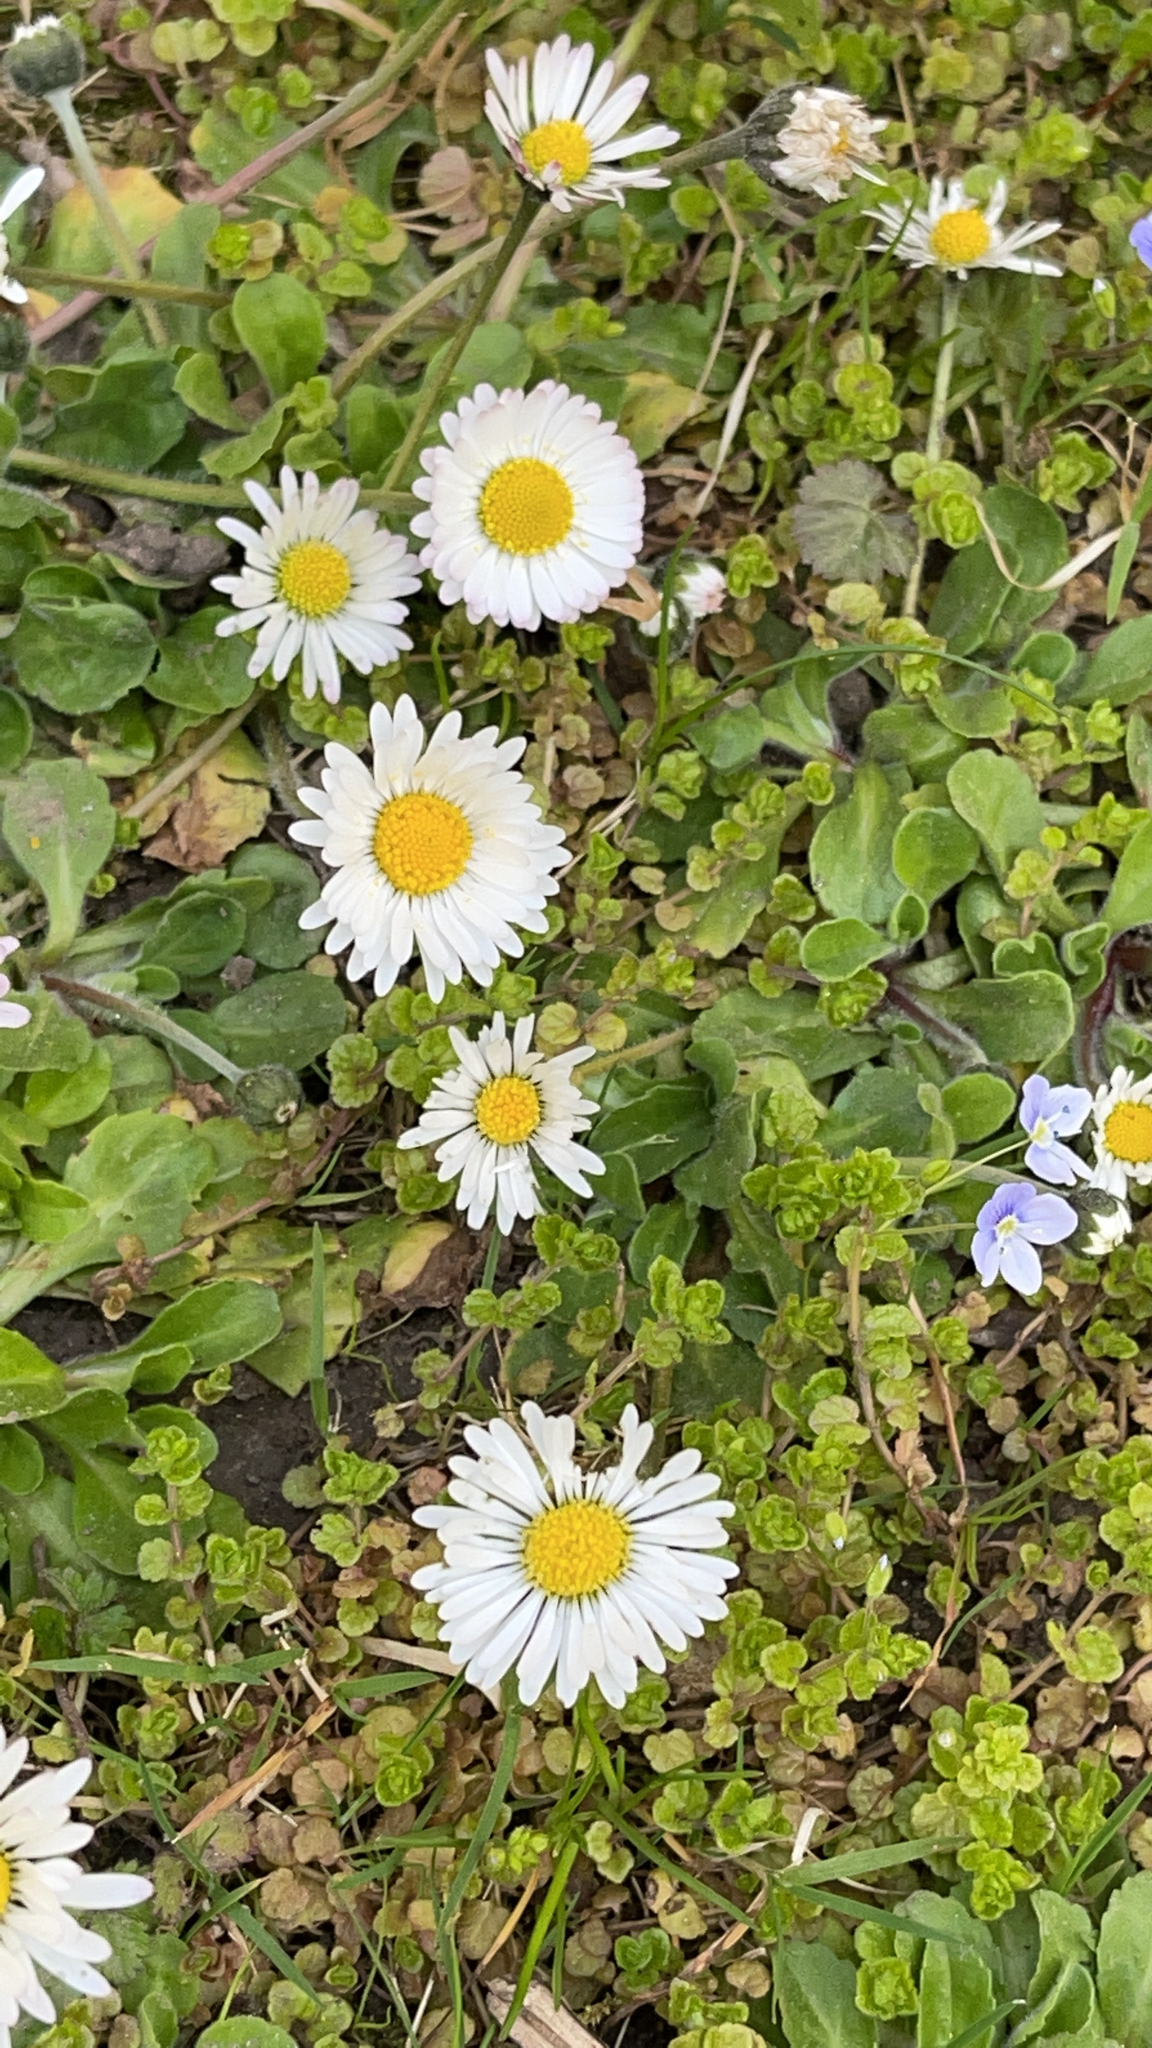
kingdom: Plantae
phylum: Tracheophyta
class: Magnoliopsida
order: Asterales
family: Asteraceae
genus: Bellis
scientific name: Bellis perennis
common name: Lawndaisy
